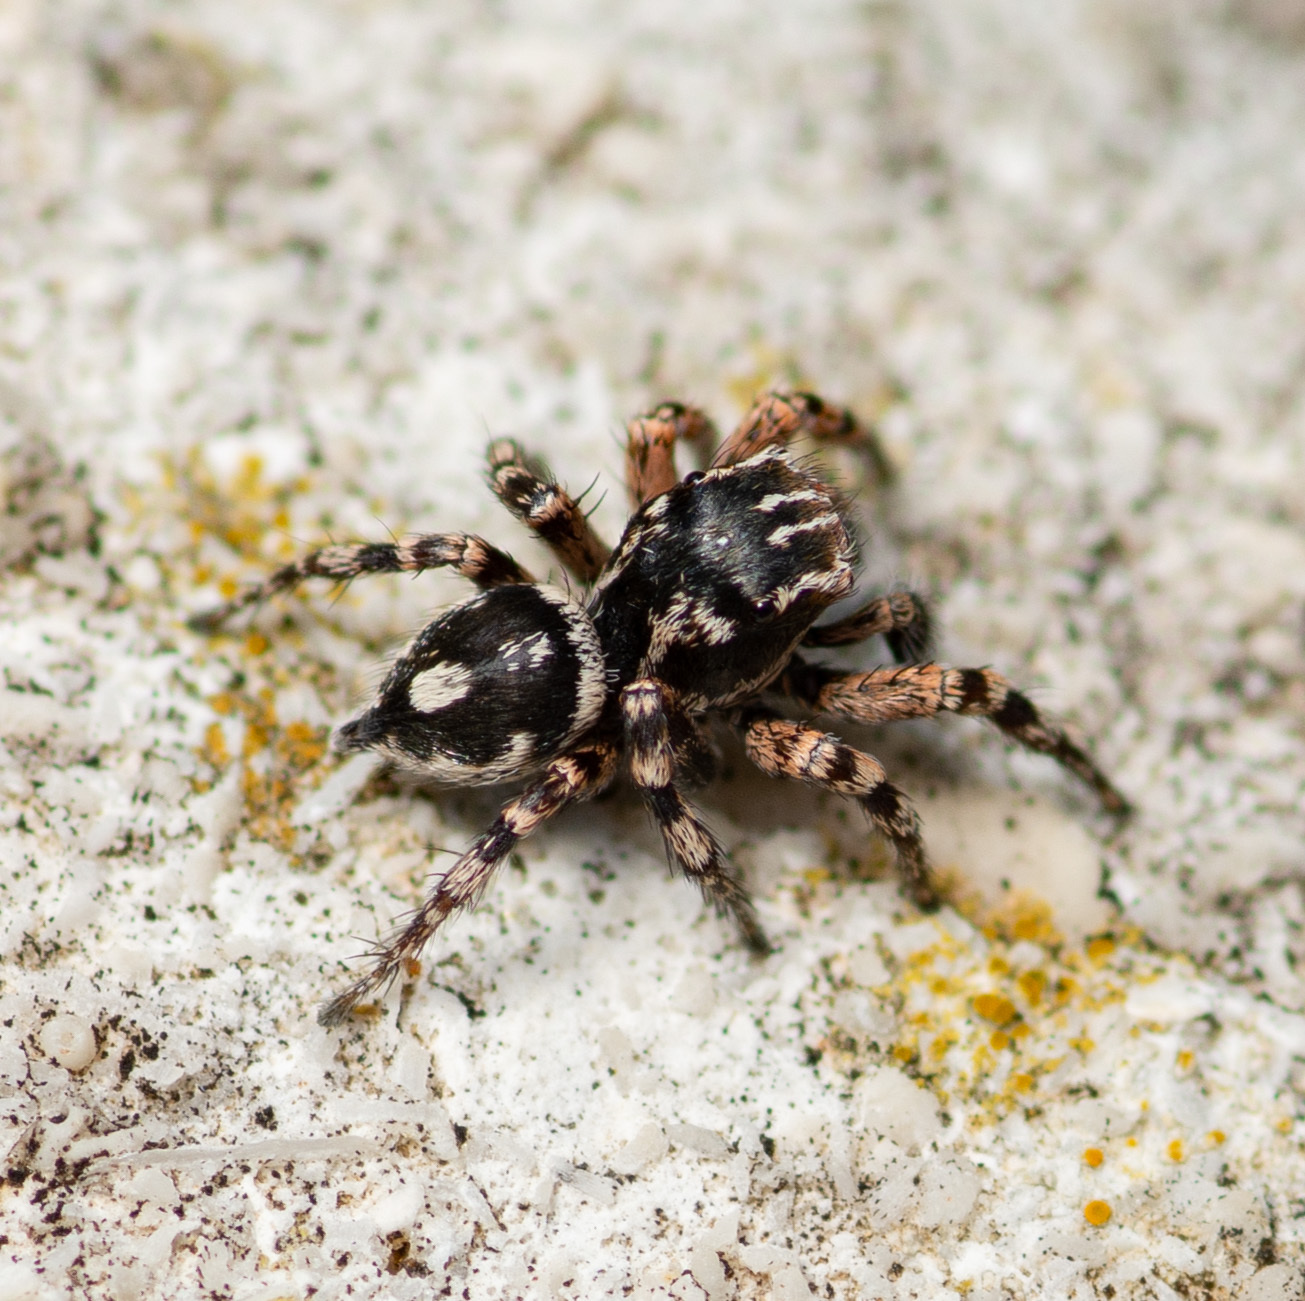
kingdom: Animalia
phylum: Arthropoda
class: Arachnida
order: Araneae
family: Salticidae
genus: Habronattus
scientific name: Habronattus fallax
